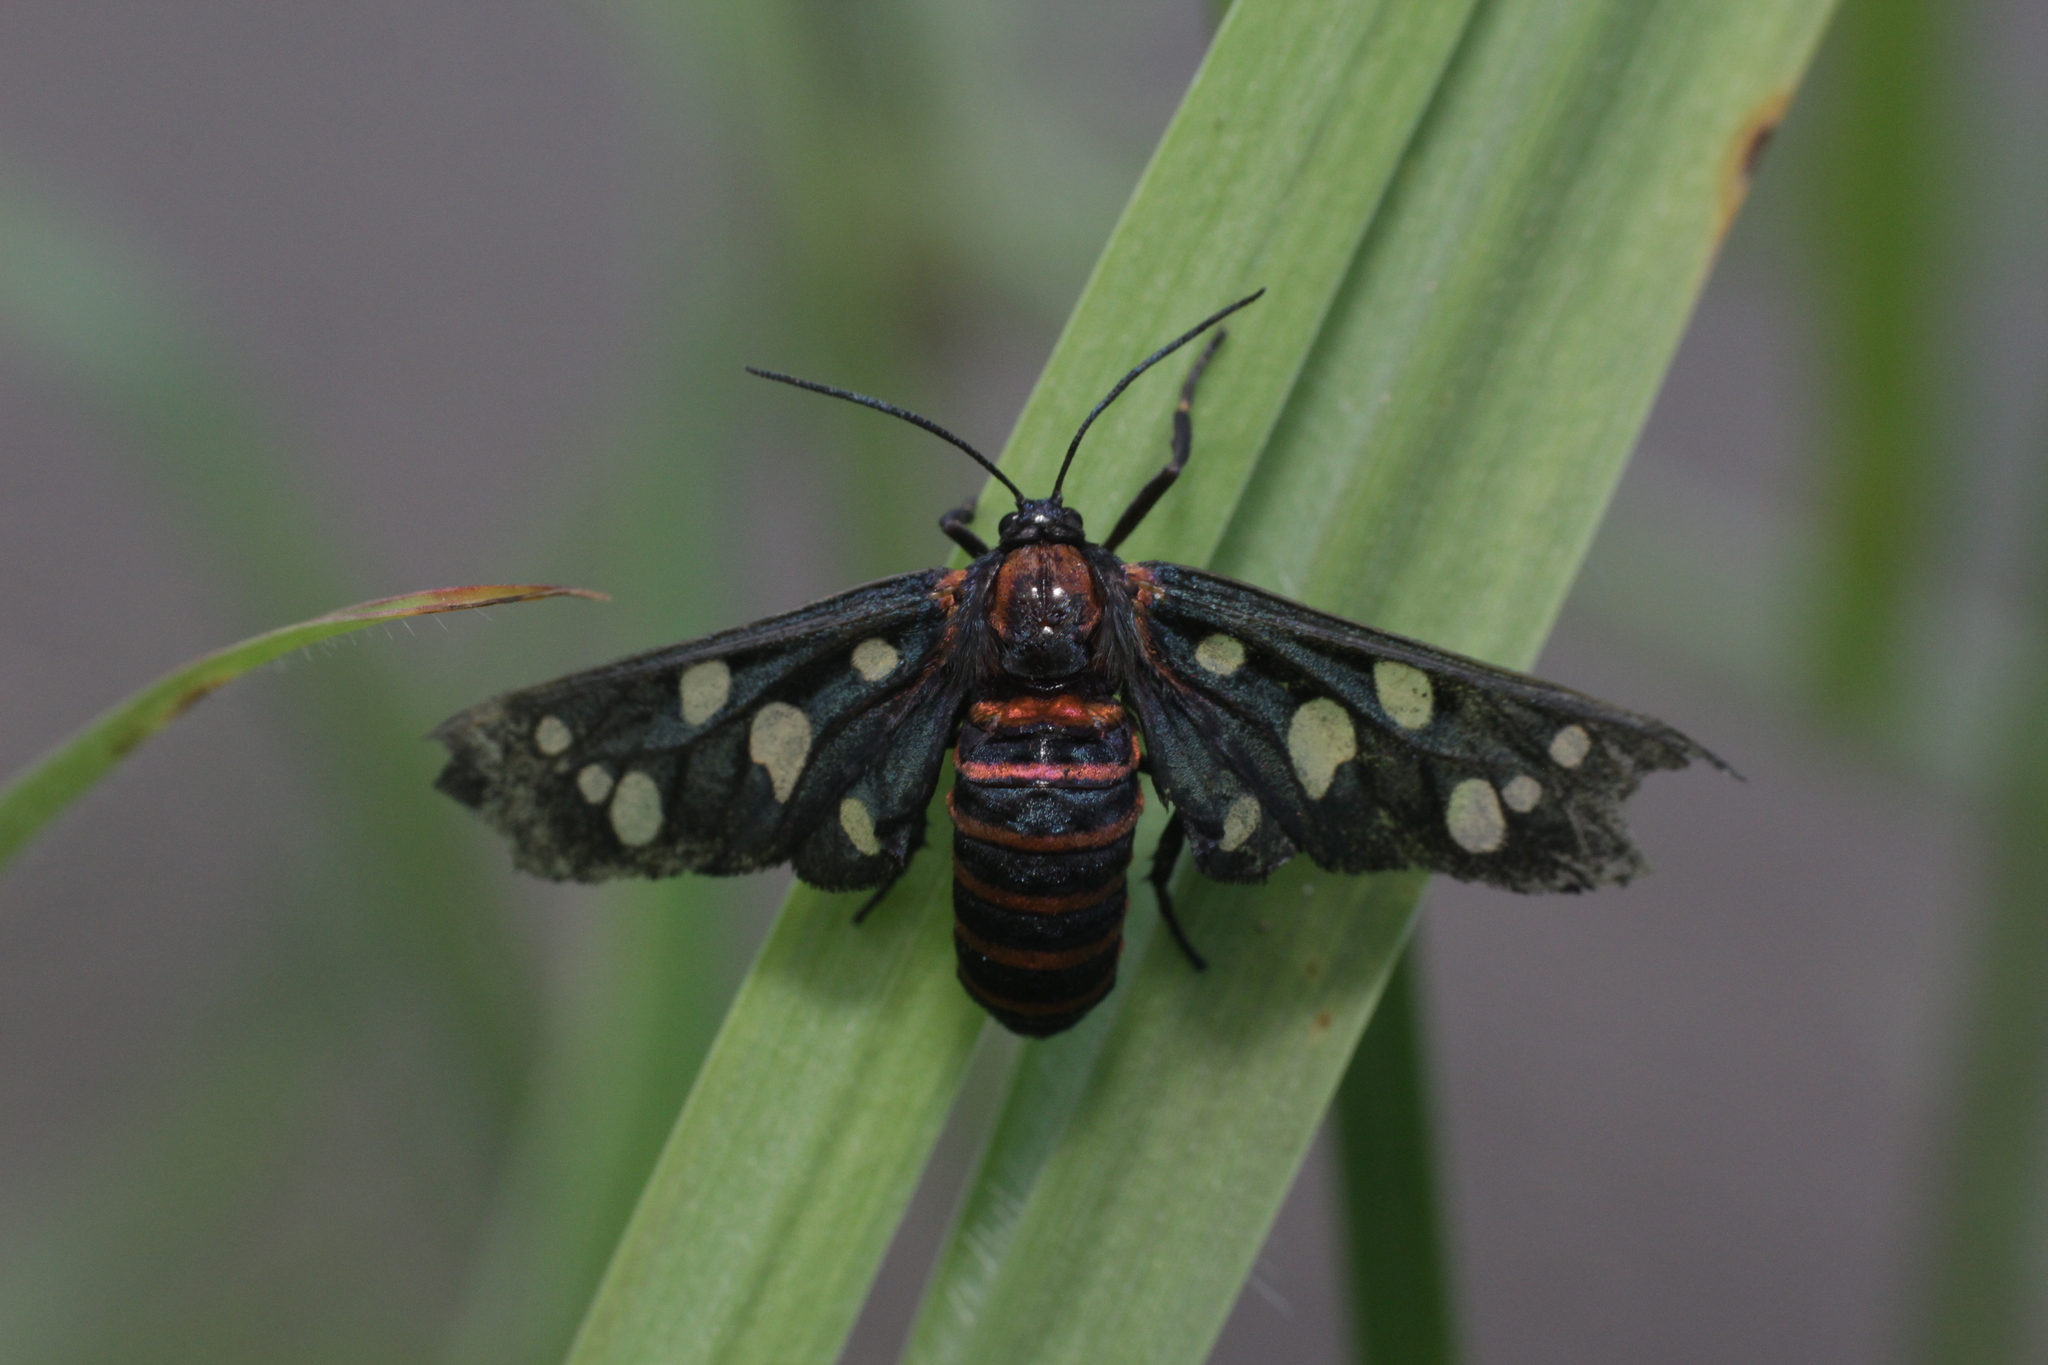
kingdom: Animalia
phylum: Arthropoda
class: Insecta
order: Lepidoptera
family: Erebidae
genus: Amata
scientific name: Amata passalis
